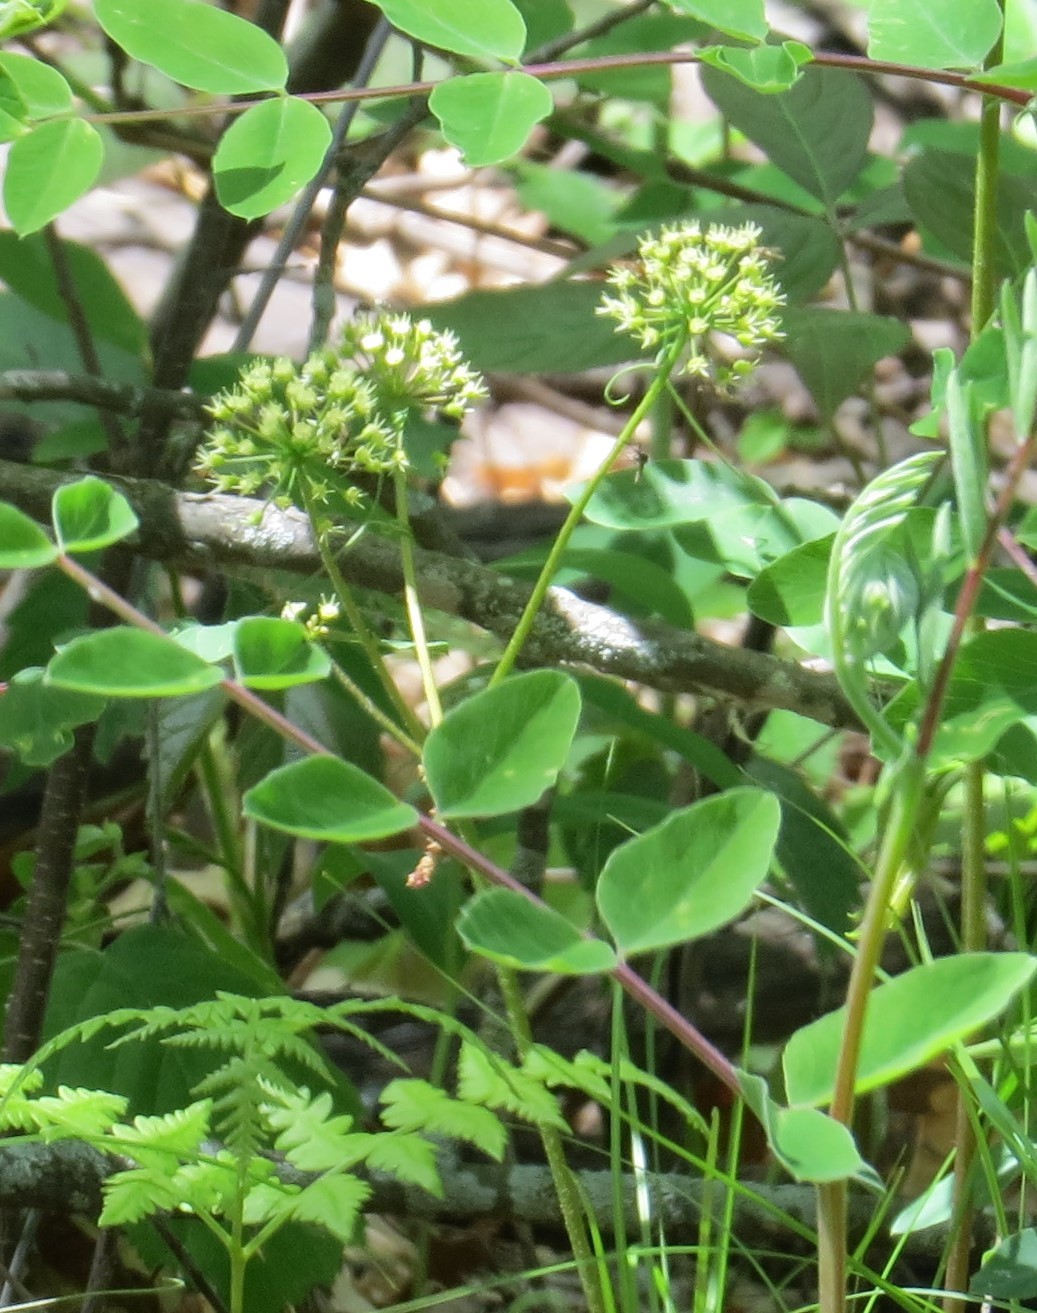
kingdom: Plantae
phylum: Tracheophyta
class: Magnoliopsida
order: Apiales
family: Araliaceae
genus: Aralia
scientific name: Aralia nudicaulis
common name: Wild sarsaparilla
